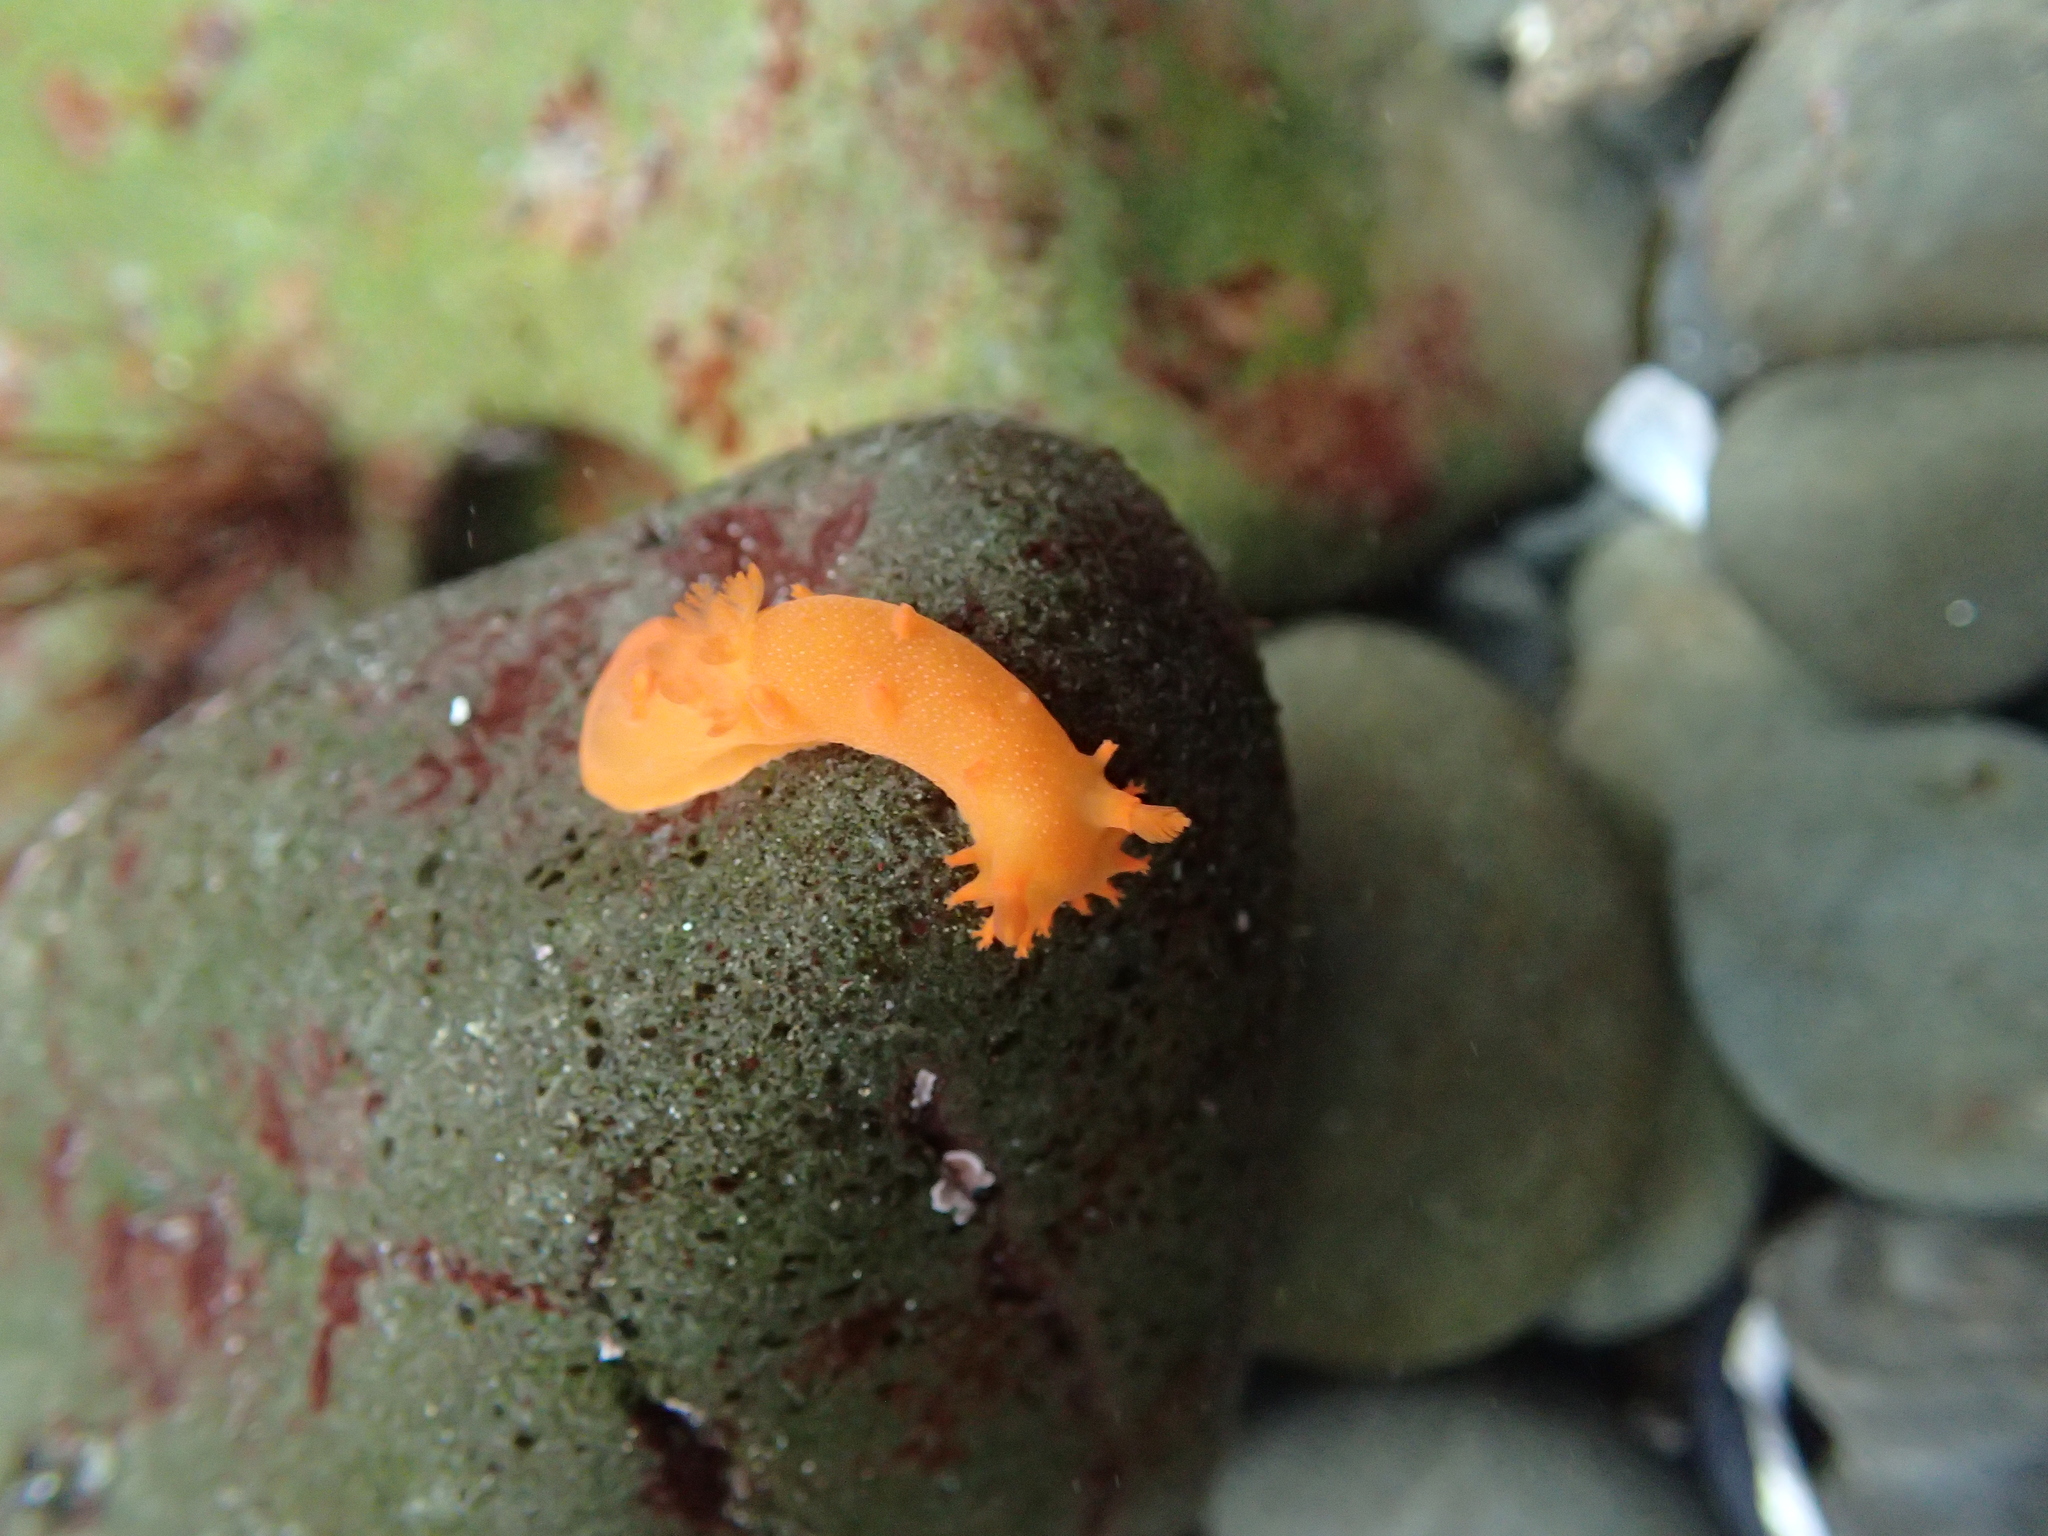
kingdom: Animalia
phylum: Mollusca
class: Gastropoda
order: Nudibranchia
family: Polyceridae
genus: Triopha
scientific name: Triopha maculata
